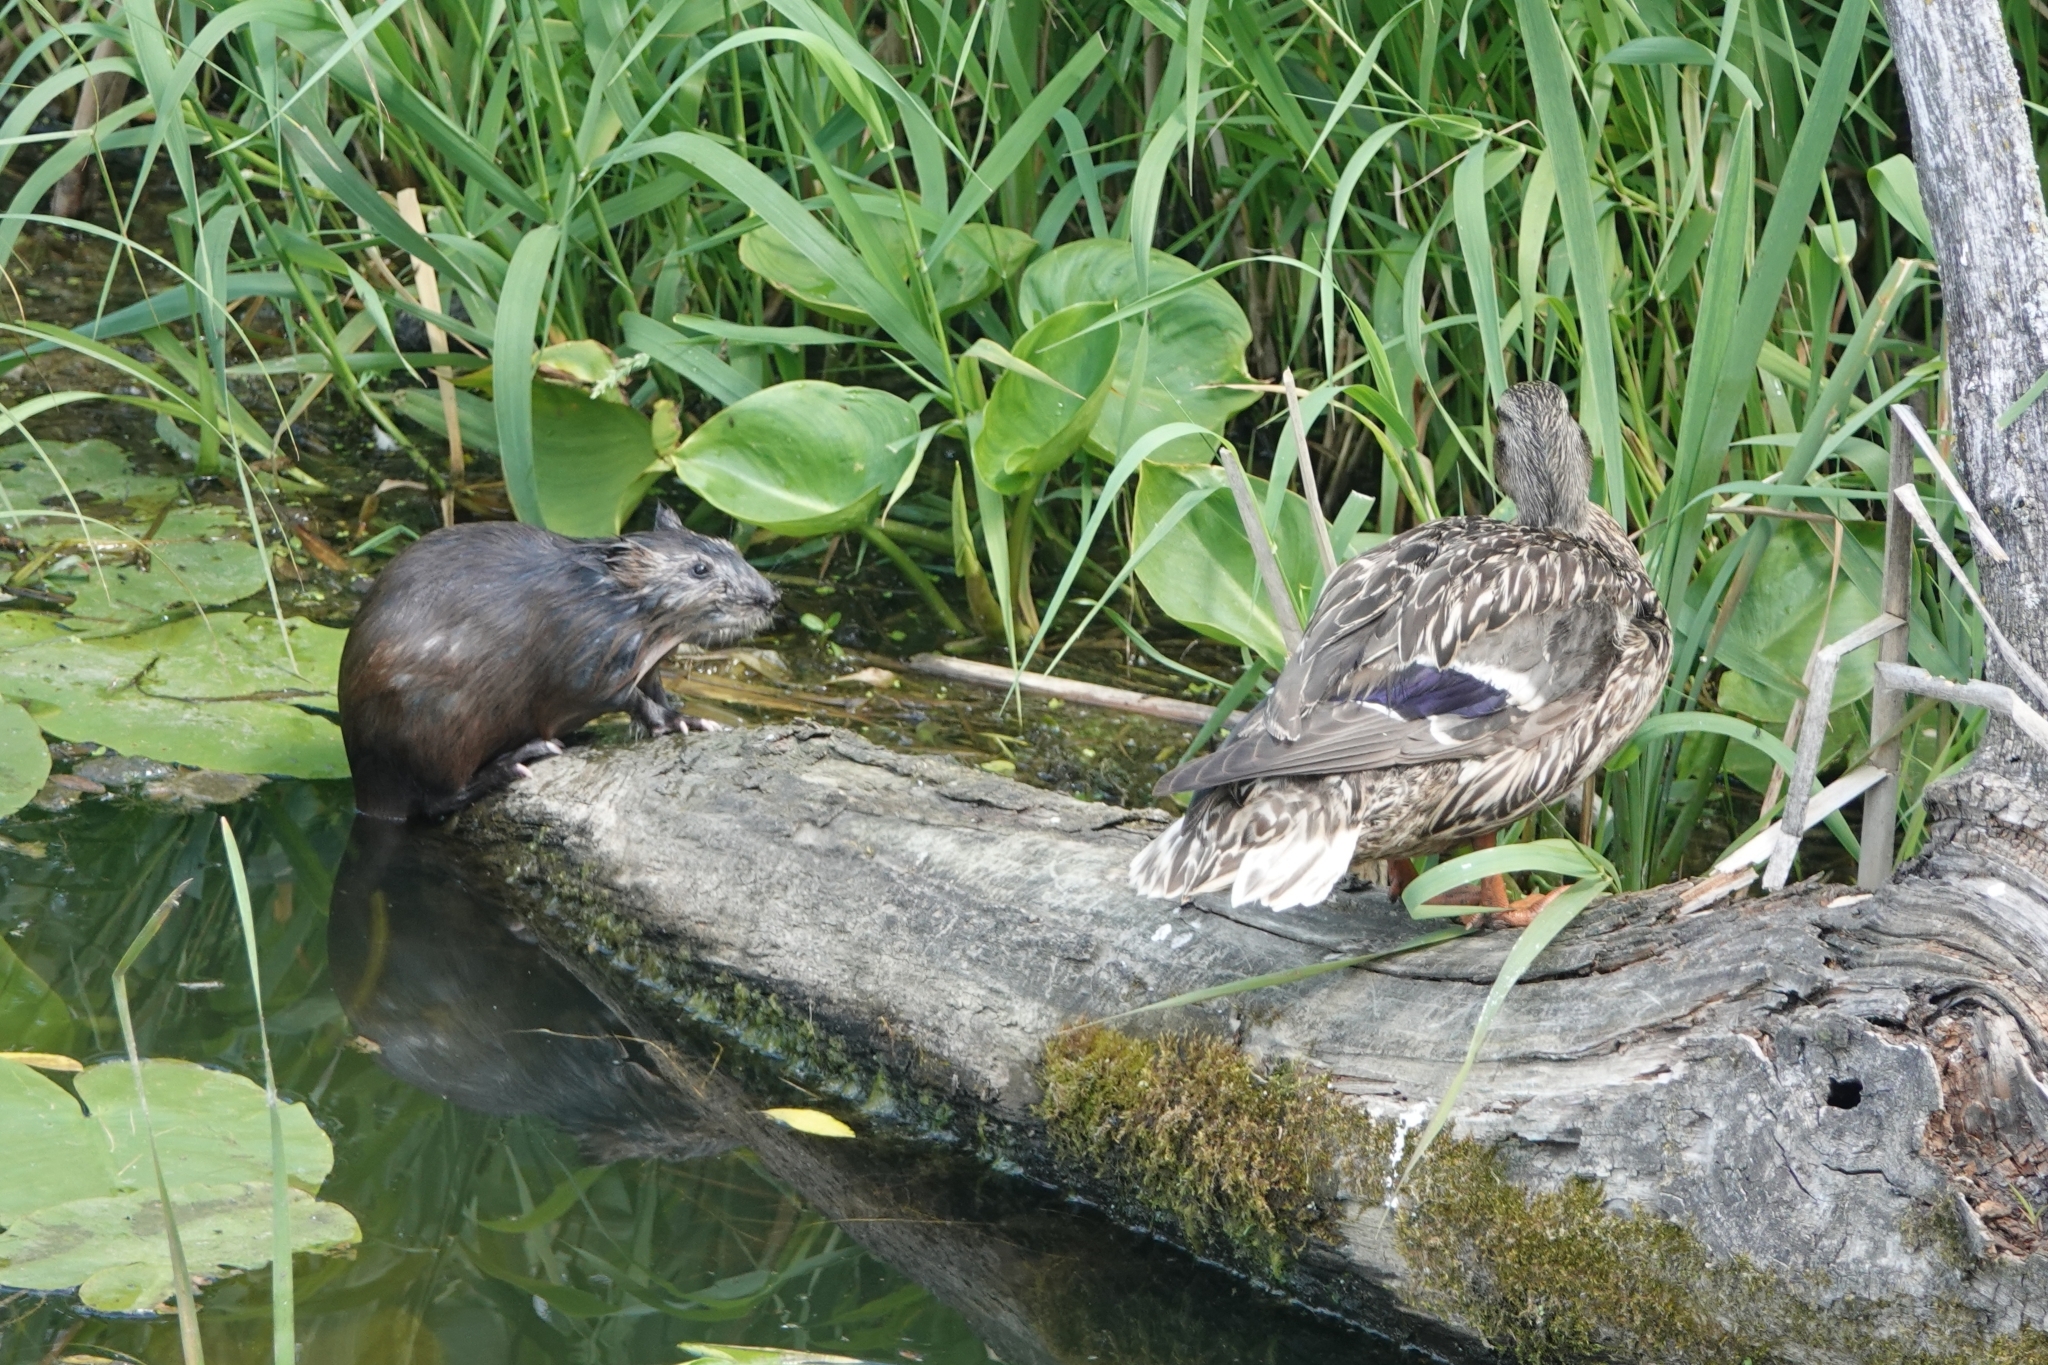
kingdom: Animalia
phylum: Chordata
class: Mammalia
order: Rodentia
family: Cricetidae
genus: Ondatra
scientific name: Ondatra zibethicus
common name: Muskrat
